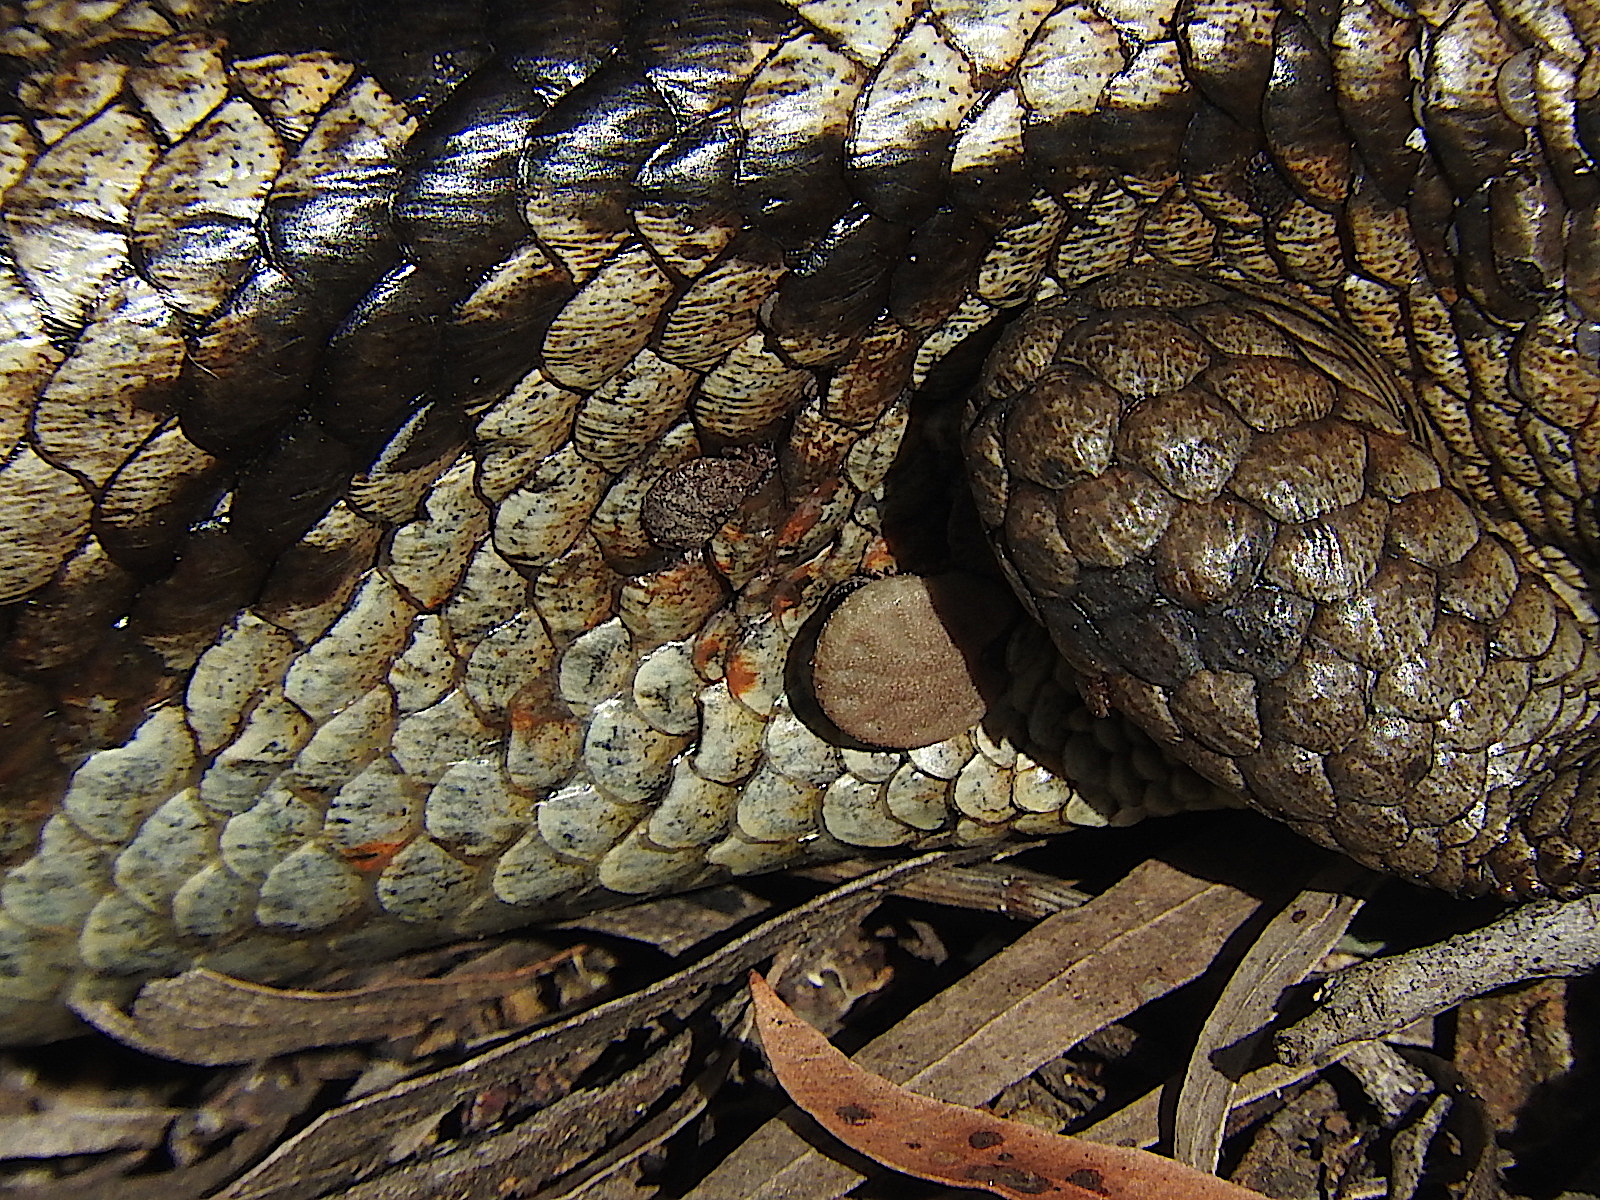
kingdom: Animalia
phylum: Arthropoda
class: Arachnida
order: Ixodida
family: Ixodidae
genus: Bothriocroton
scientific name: Bothriocroton hydrosauri
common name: Southern reptile tick
